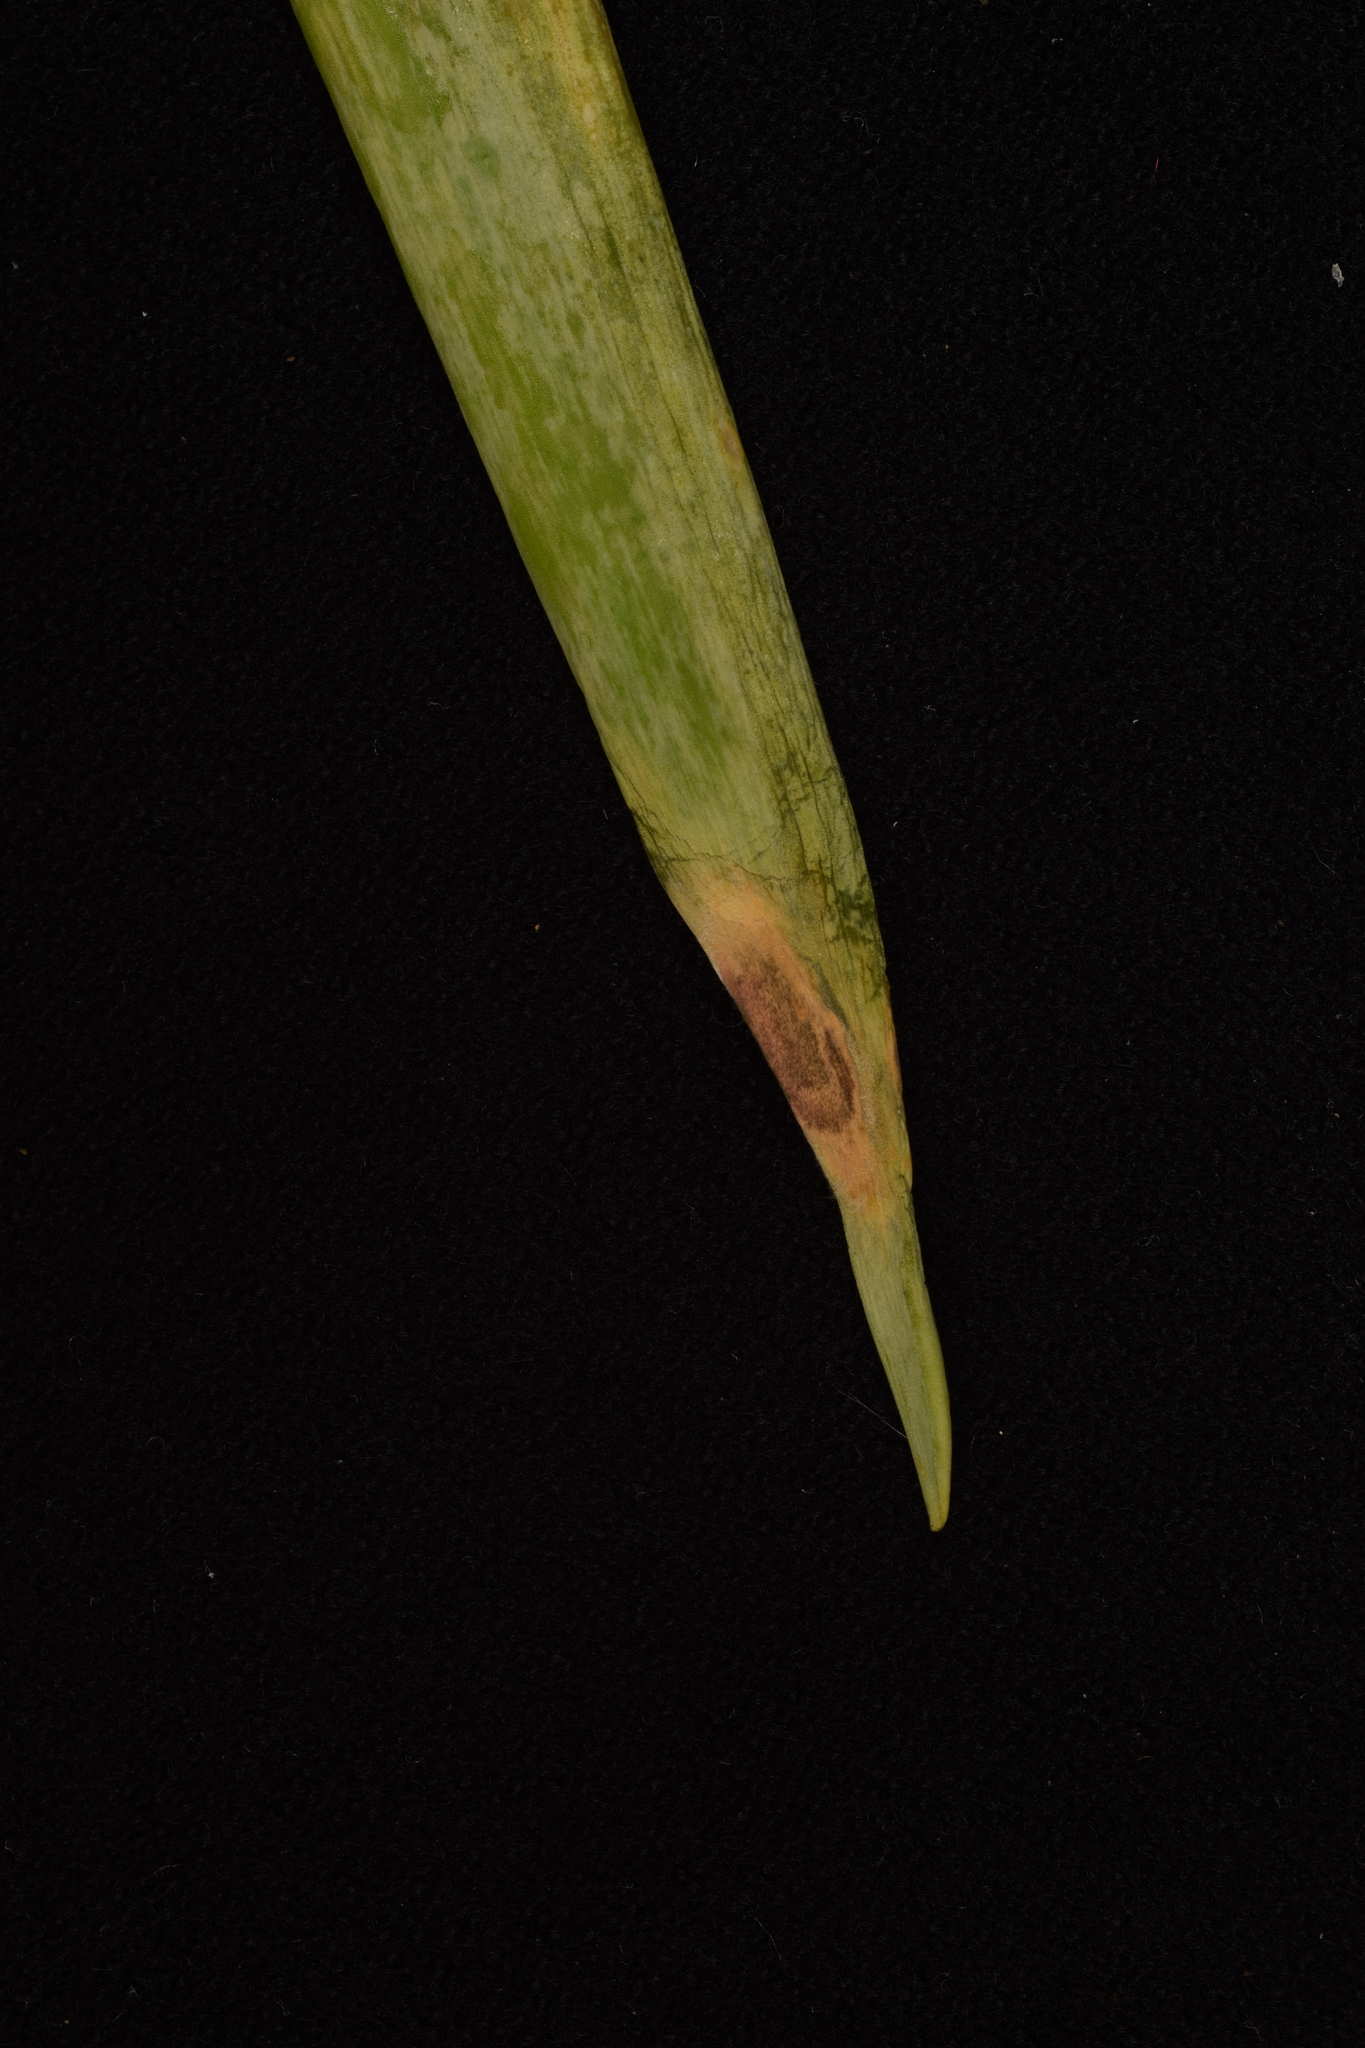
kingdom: Fungi
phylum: Ascomycota
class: Dothideomycetes
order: Pleosporales
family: Pleosporaceae
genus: Stemphylium
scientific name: Stemphylium vesicarium
